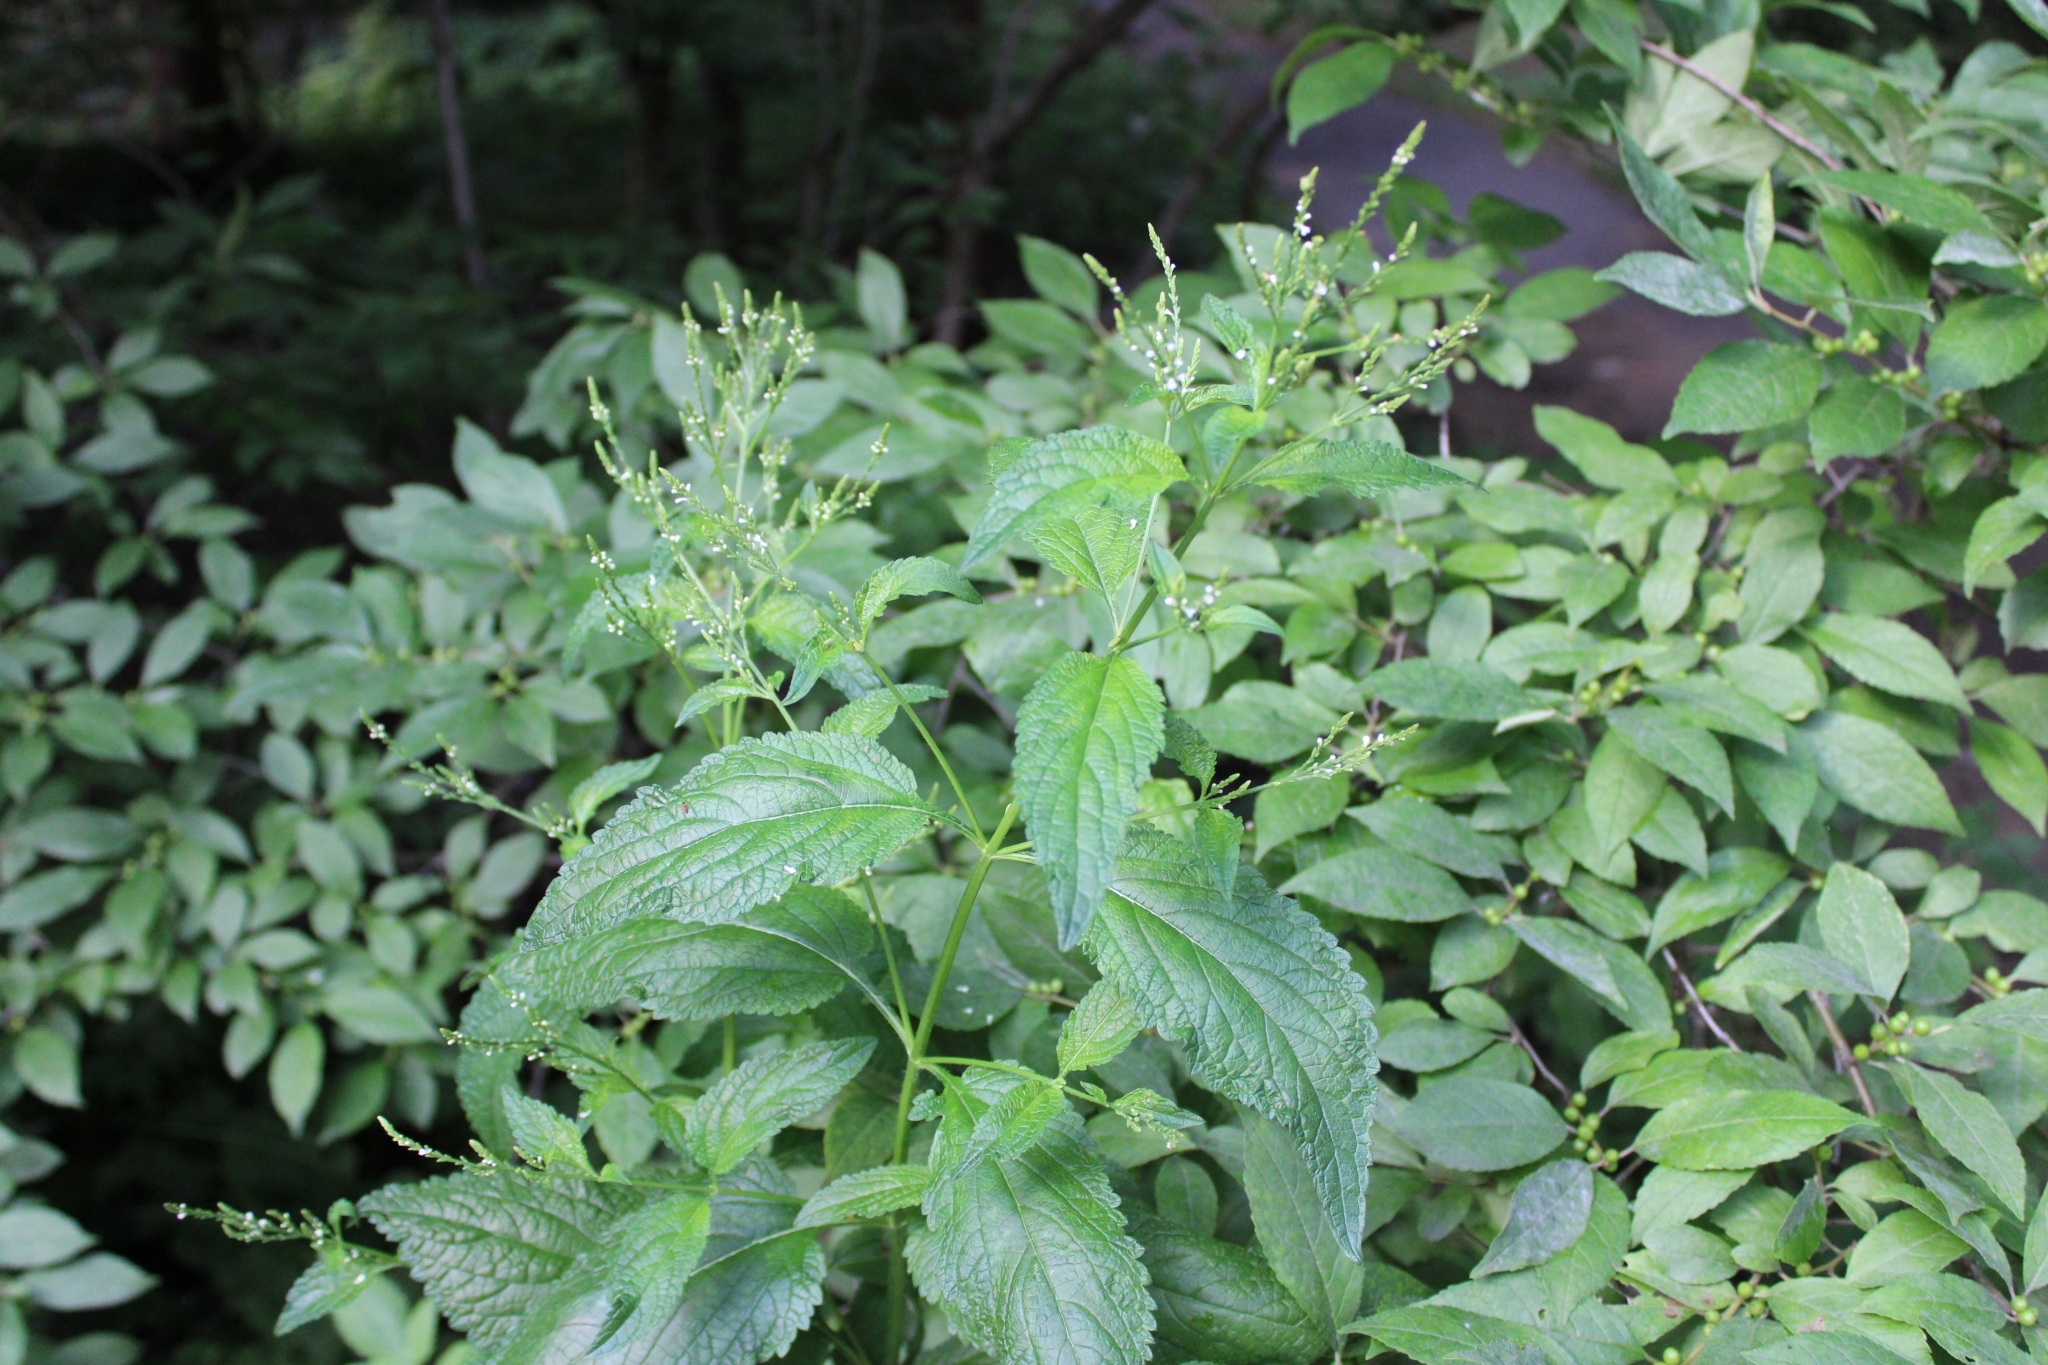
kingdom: Plantae
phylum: Tracheophyta
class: Magnoliopsida
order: Lamiales
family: Verbenaceae
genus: Verbena
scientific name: Verbena urticifolia
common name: Nettle-leaved vervain
